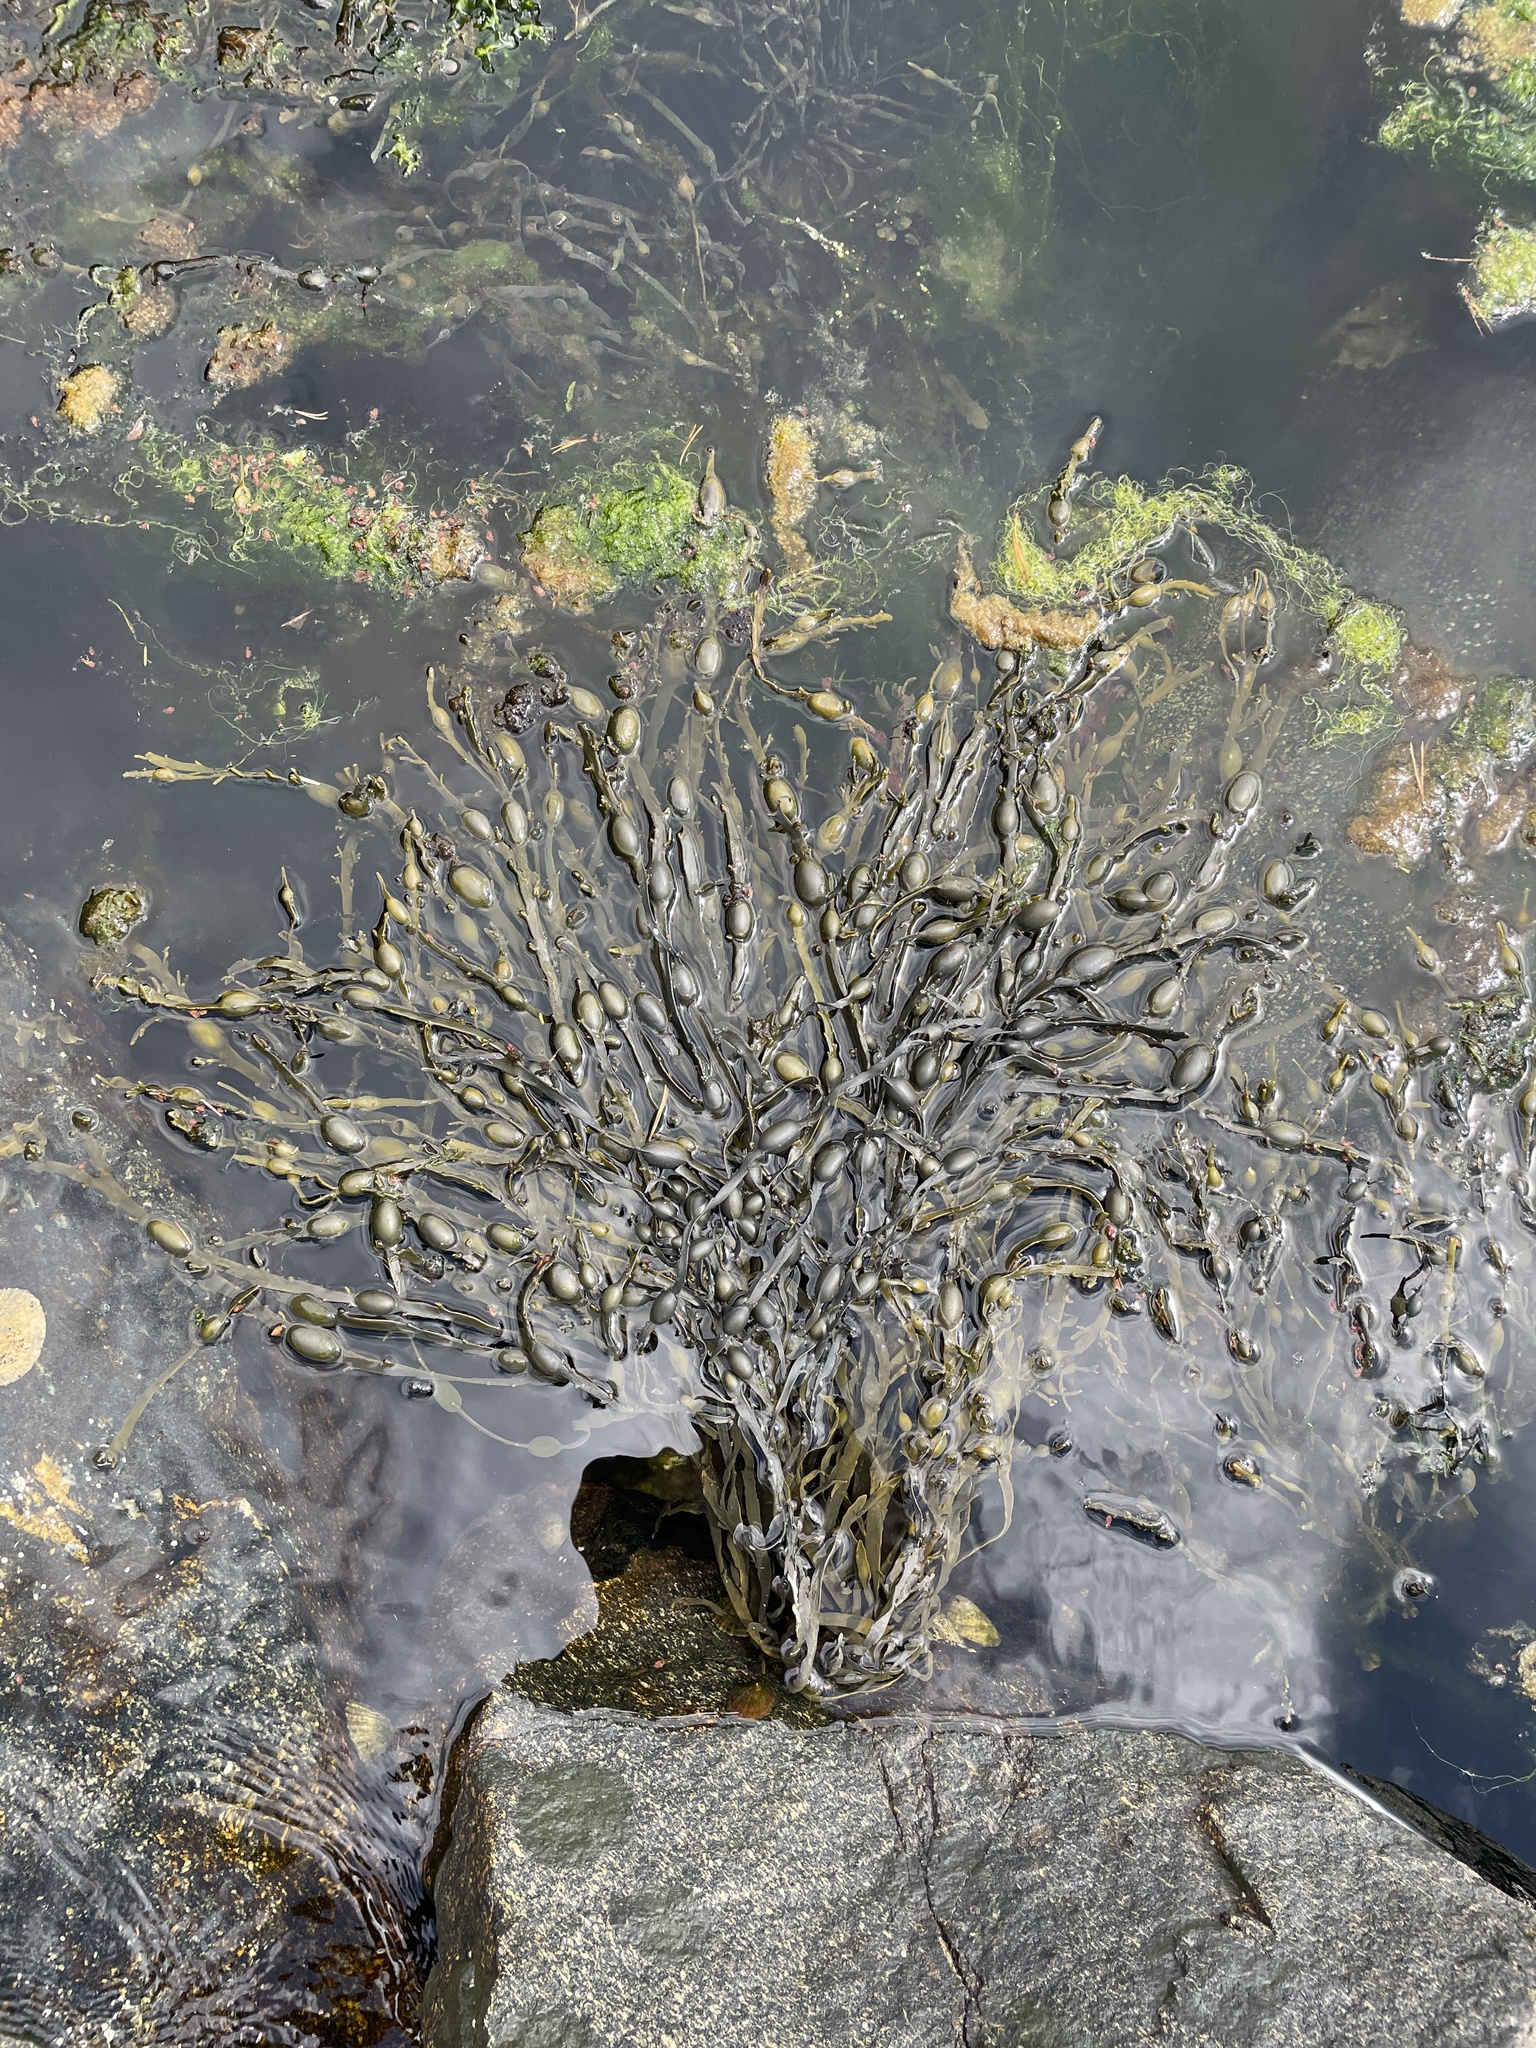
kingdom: Chromista
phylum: Ochrophyta
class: Phaeophyceae
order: Fucales
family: Fucaceae
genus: Ascophyllum
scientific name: Ascophyllum nodosum
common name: Knotted wrack
